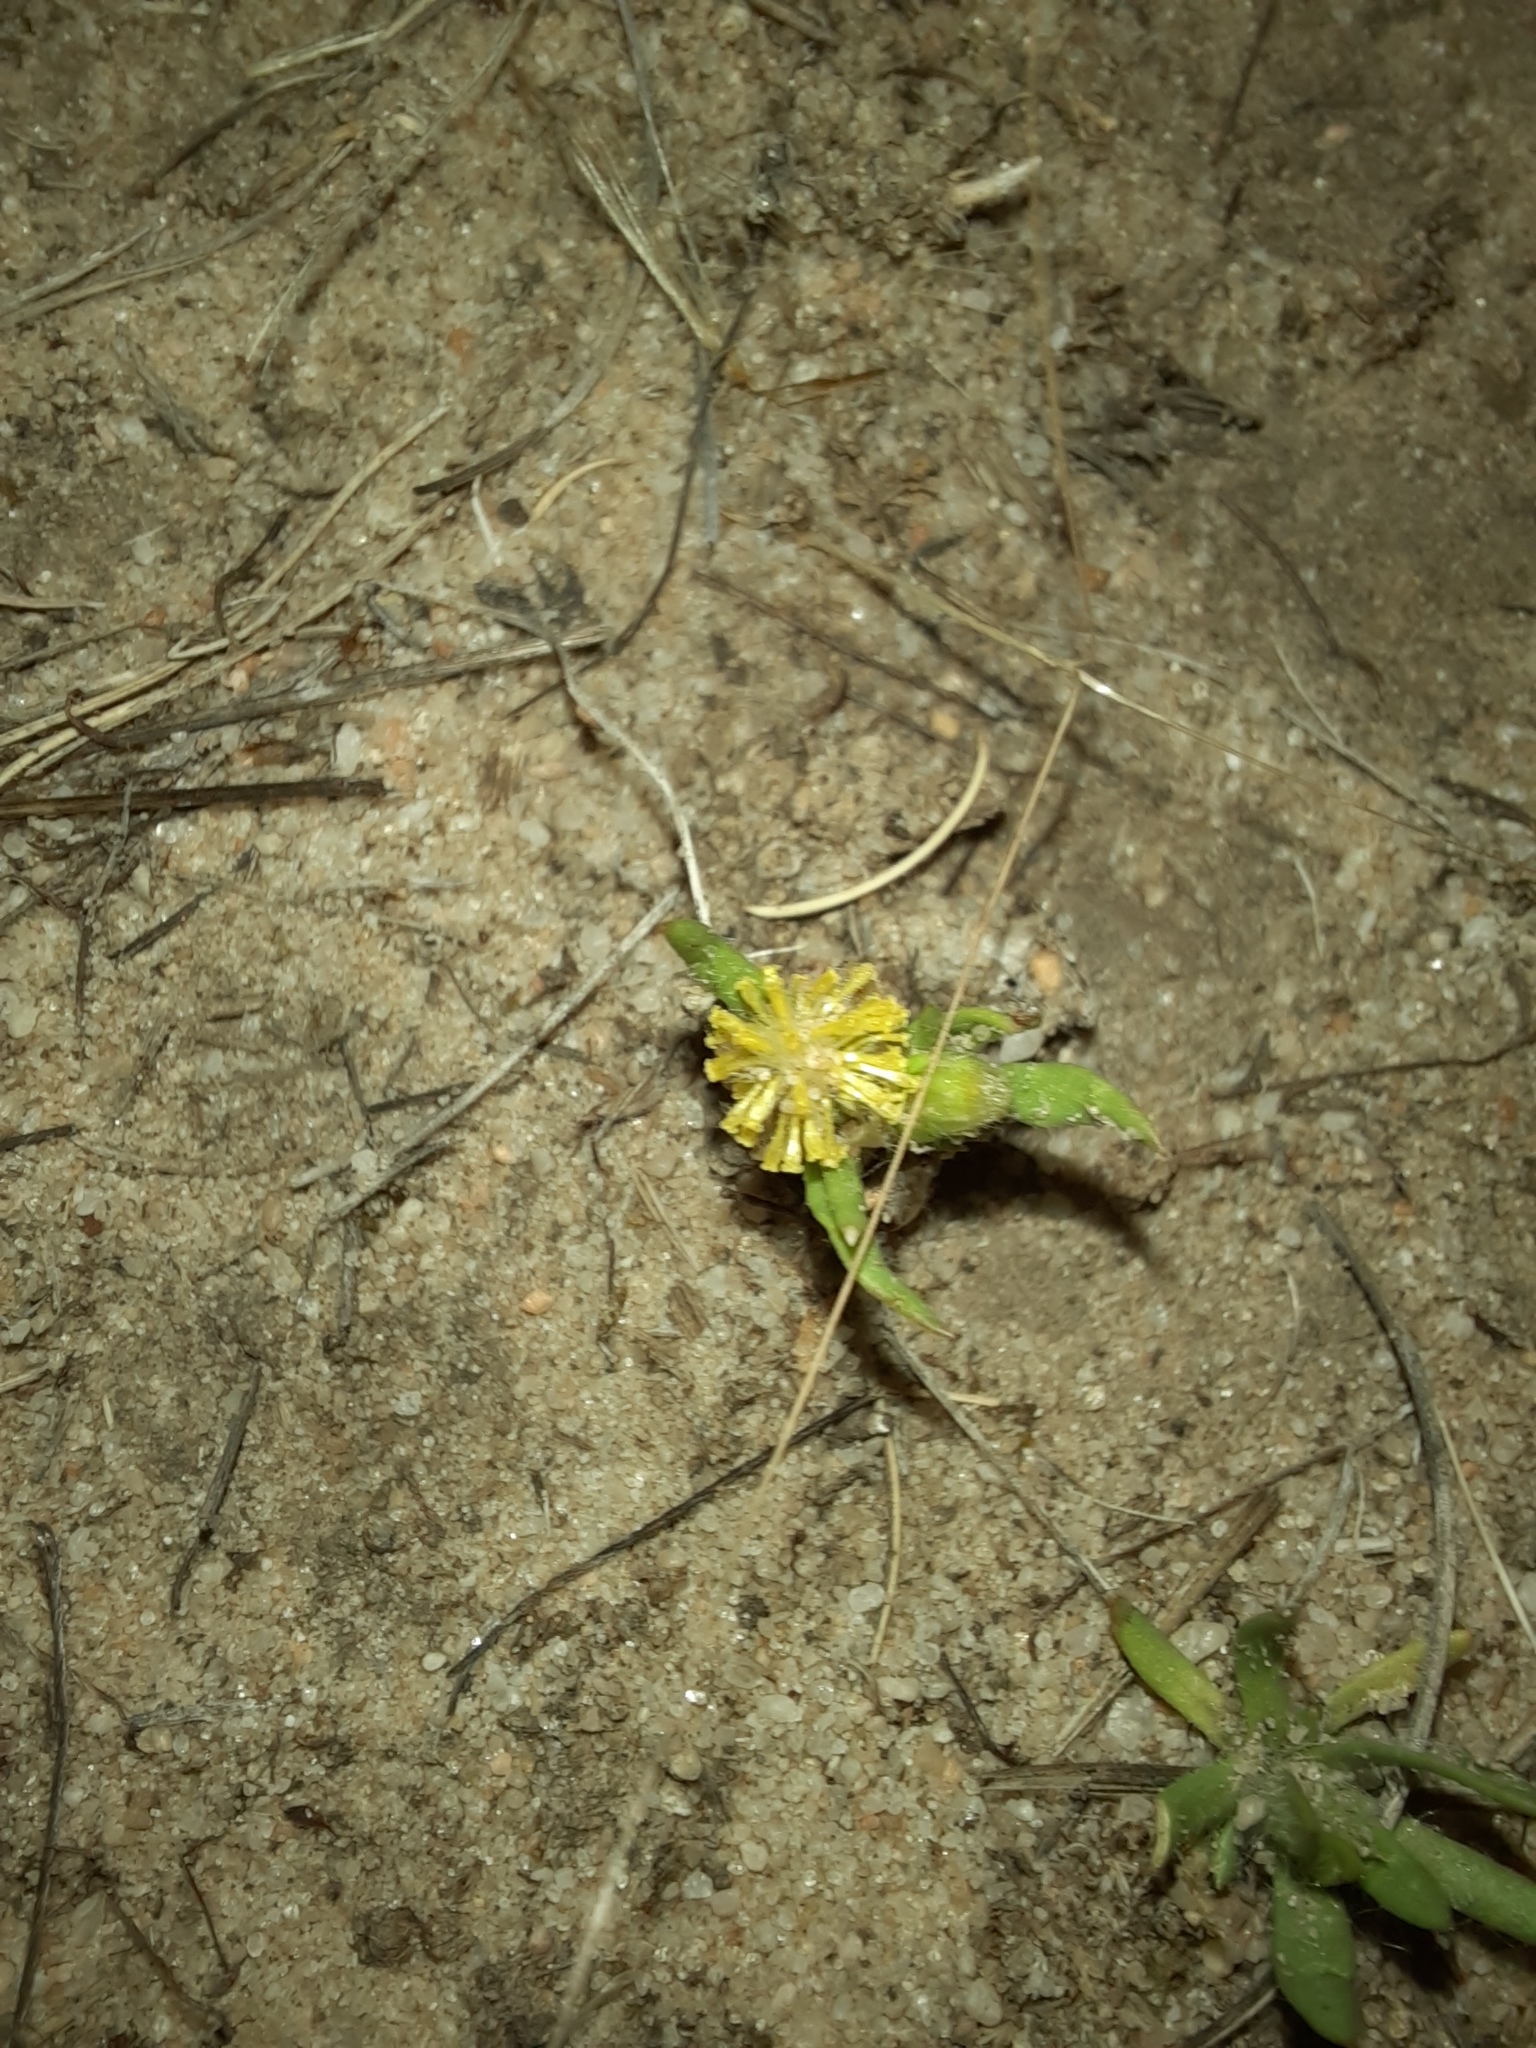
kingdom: Plantae
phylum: Tracheophyta
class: Magnoliopsida
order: Asterales
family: Asteraceae
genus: Triptilodiscus
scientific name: Triptilodiscus pygmaeus
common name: Common sunray
